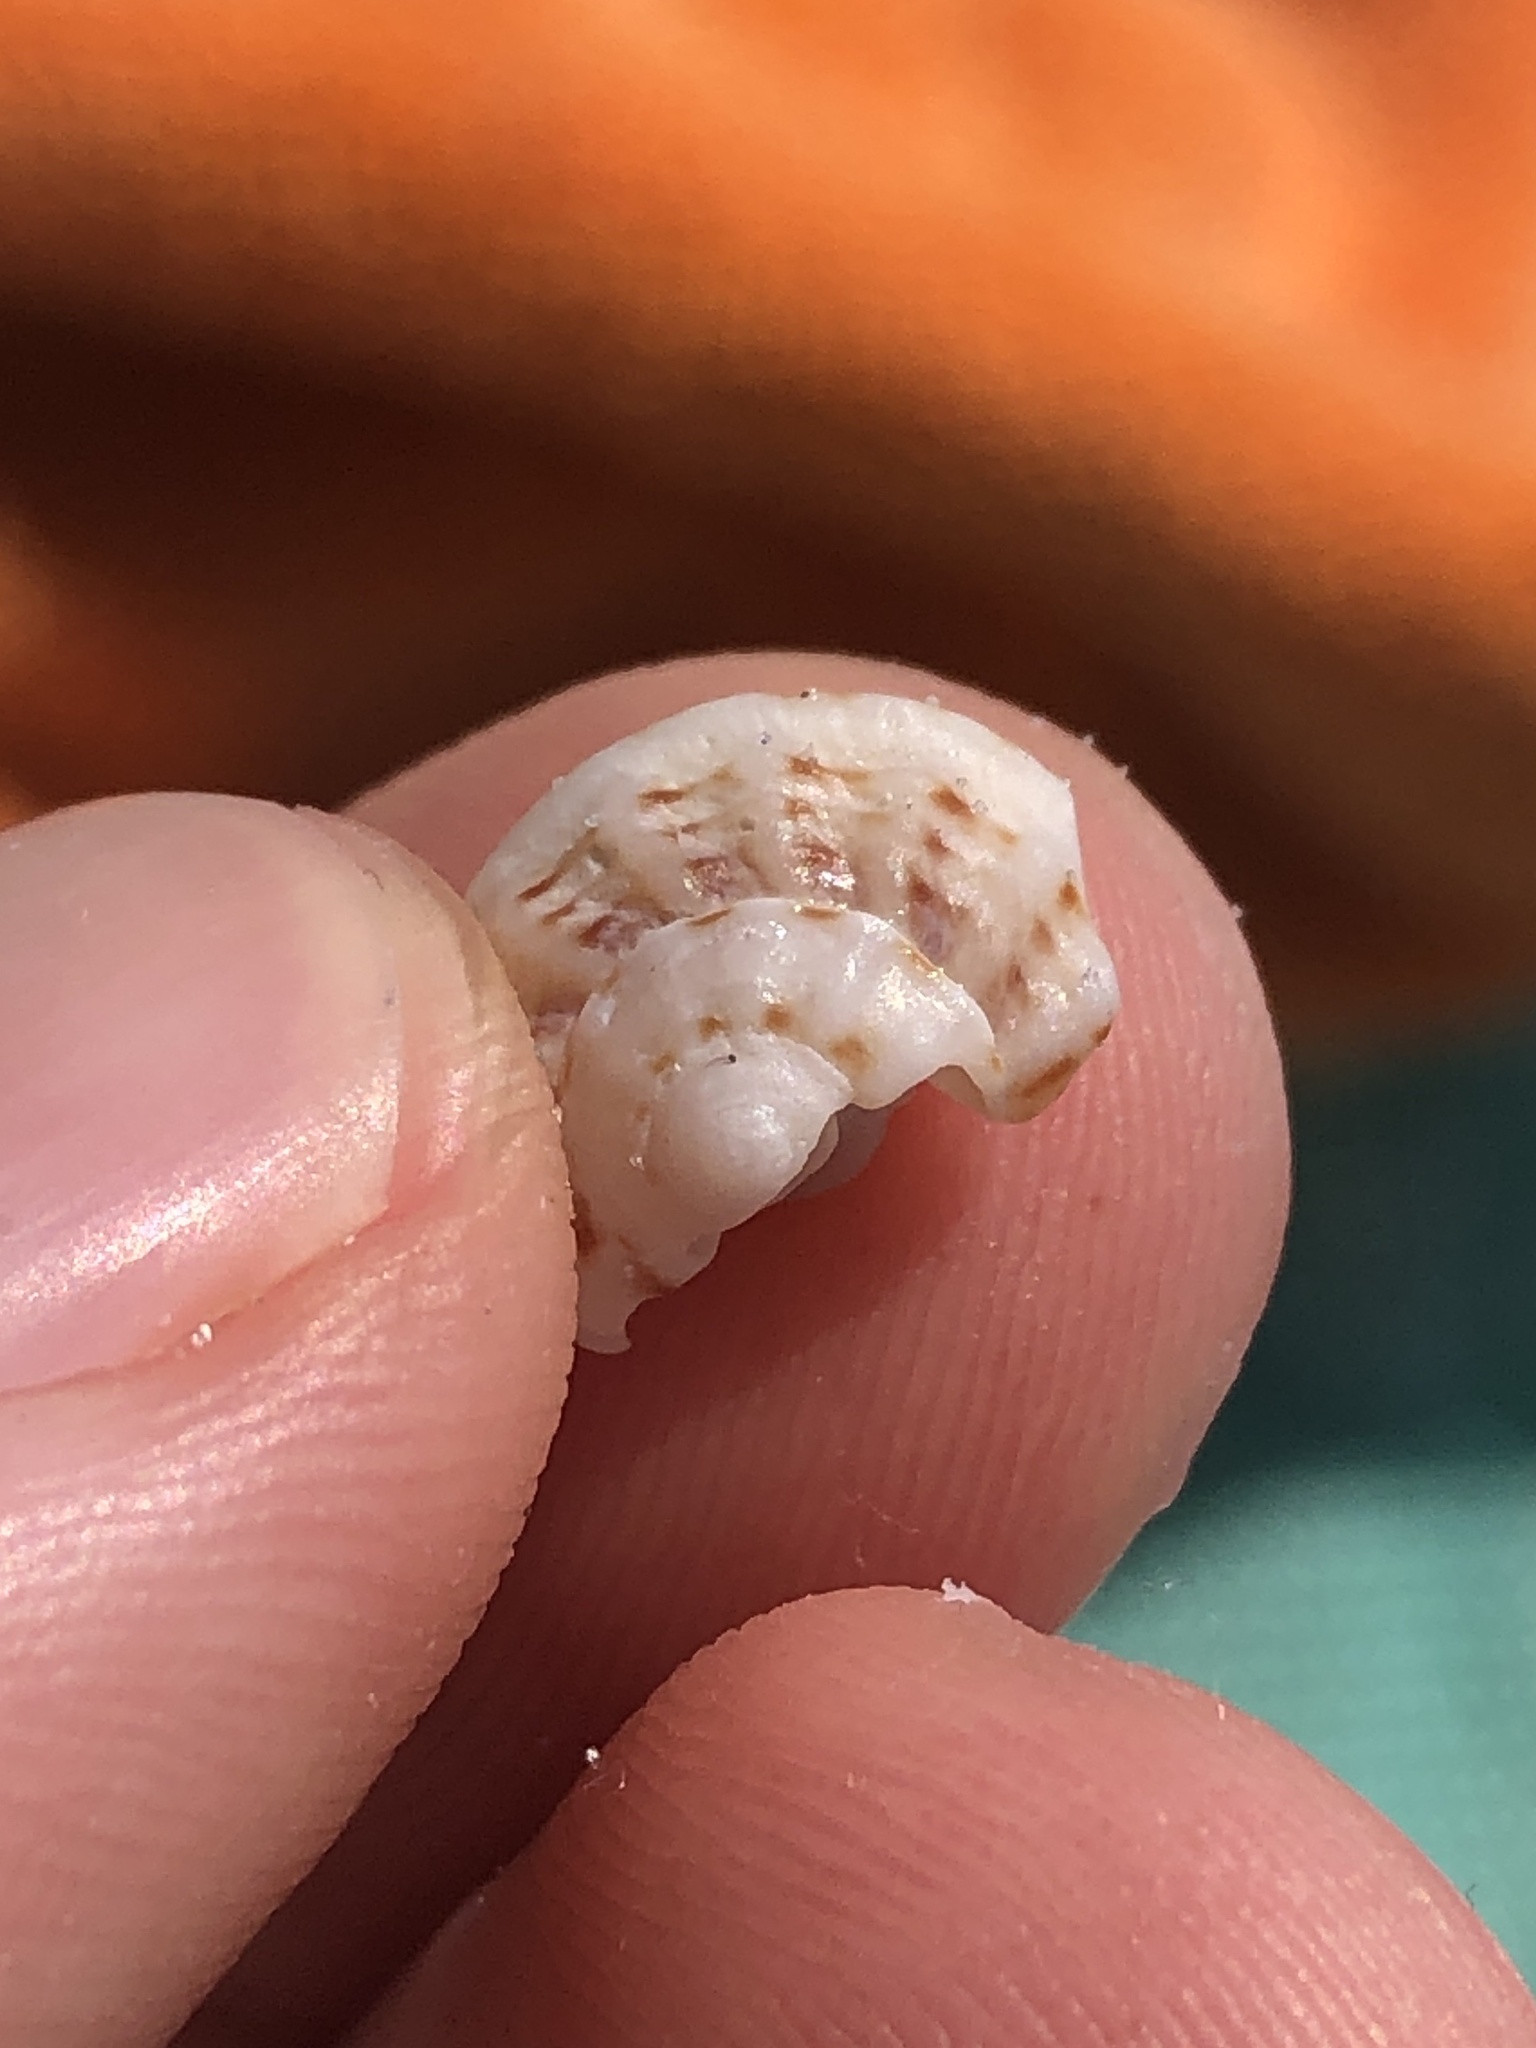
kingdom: Animalia
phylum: Mollusca
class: Gastropoda
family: Modulidae
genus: Modulus
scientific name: Modulus modulus
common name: Atlantic modulus
